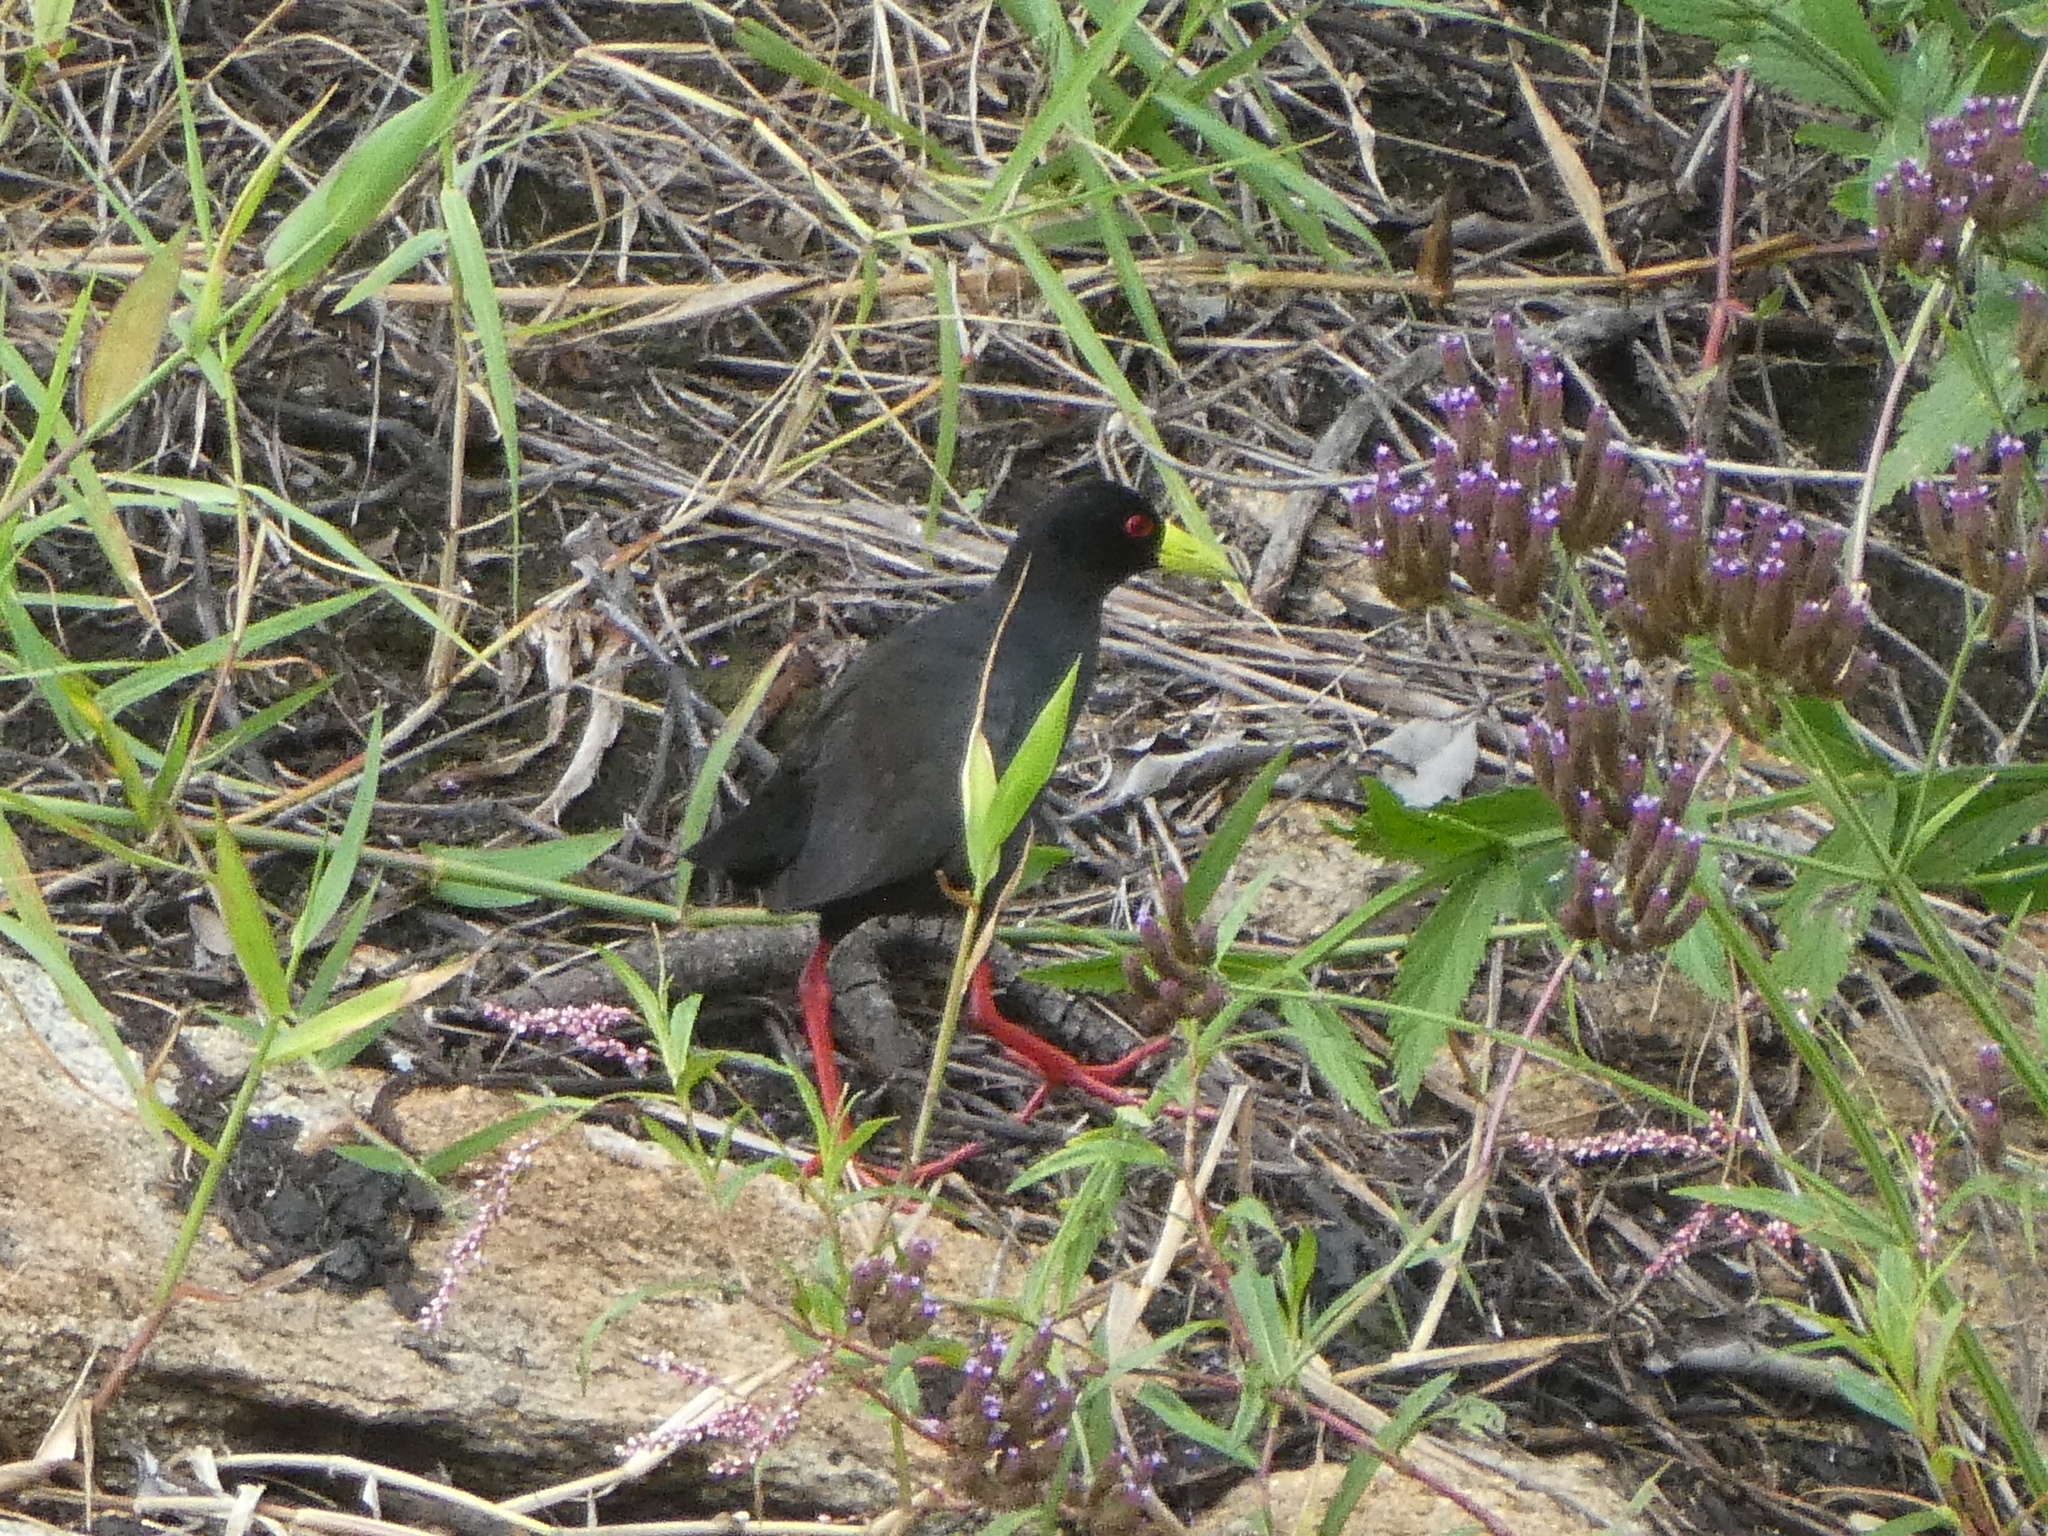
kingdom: Animalia
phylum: Chordata
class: Aves
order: Gruiformes
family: Rallidae
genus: Amaurornis
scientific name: Amaurornis flavirostra
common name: Black crake
